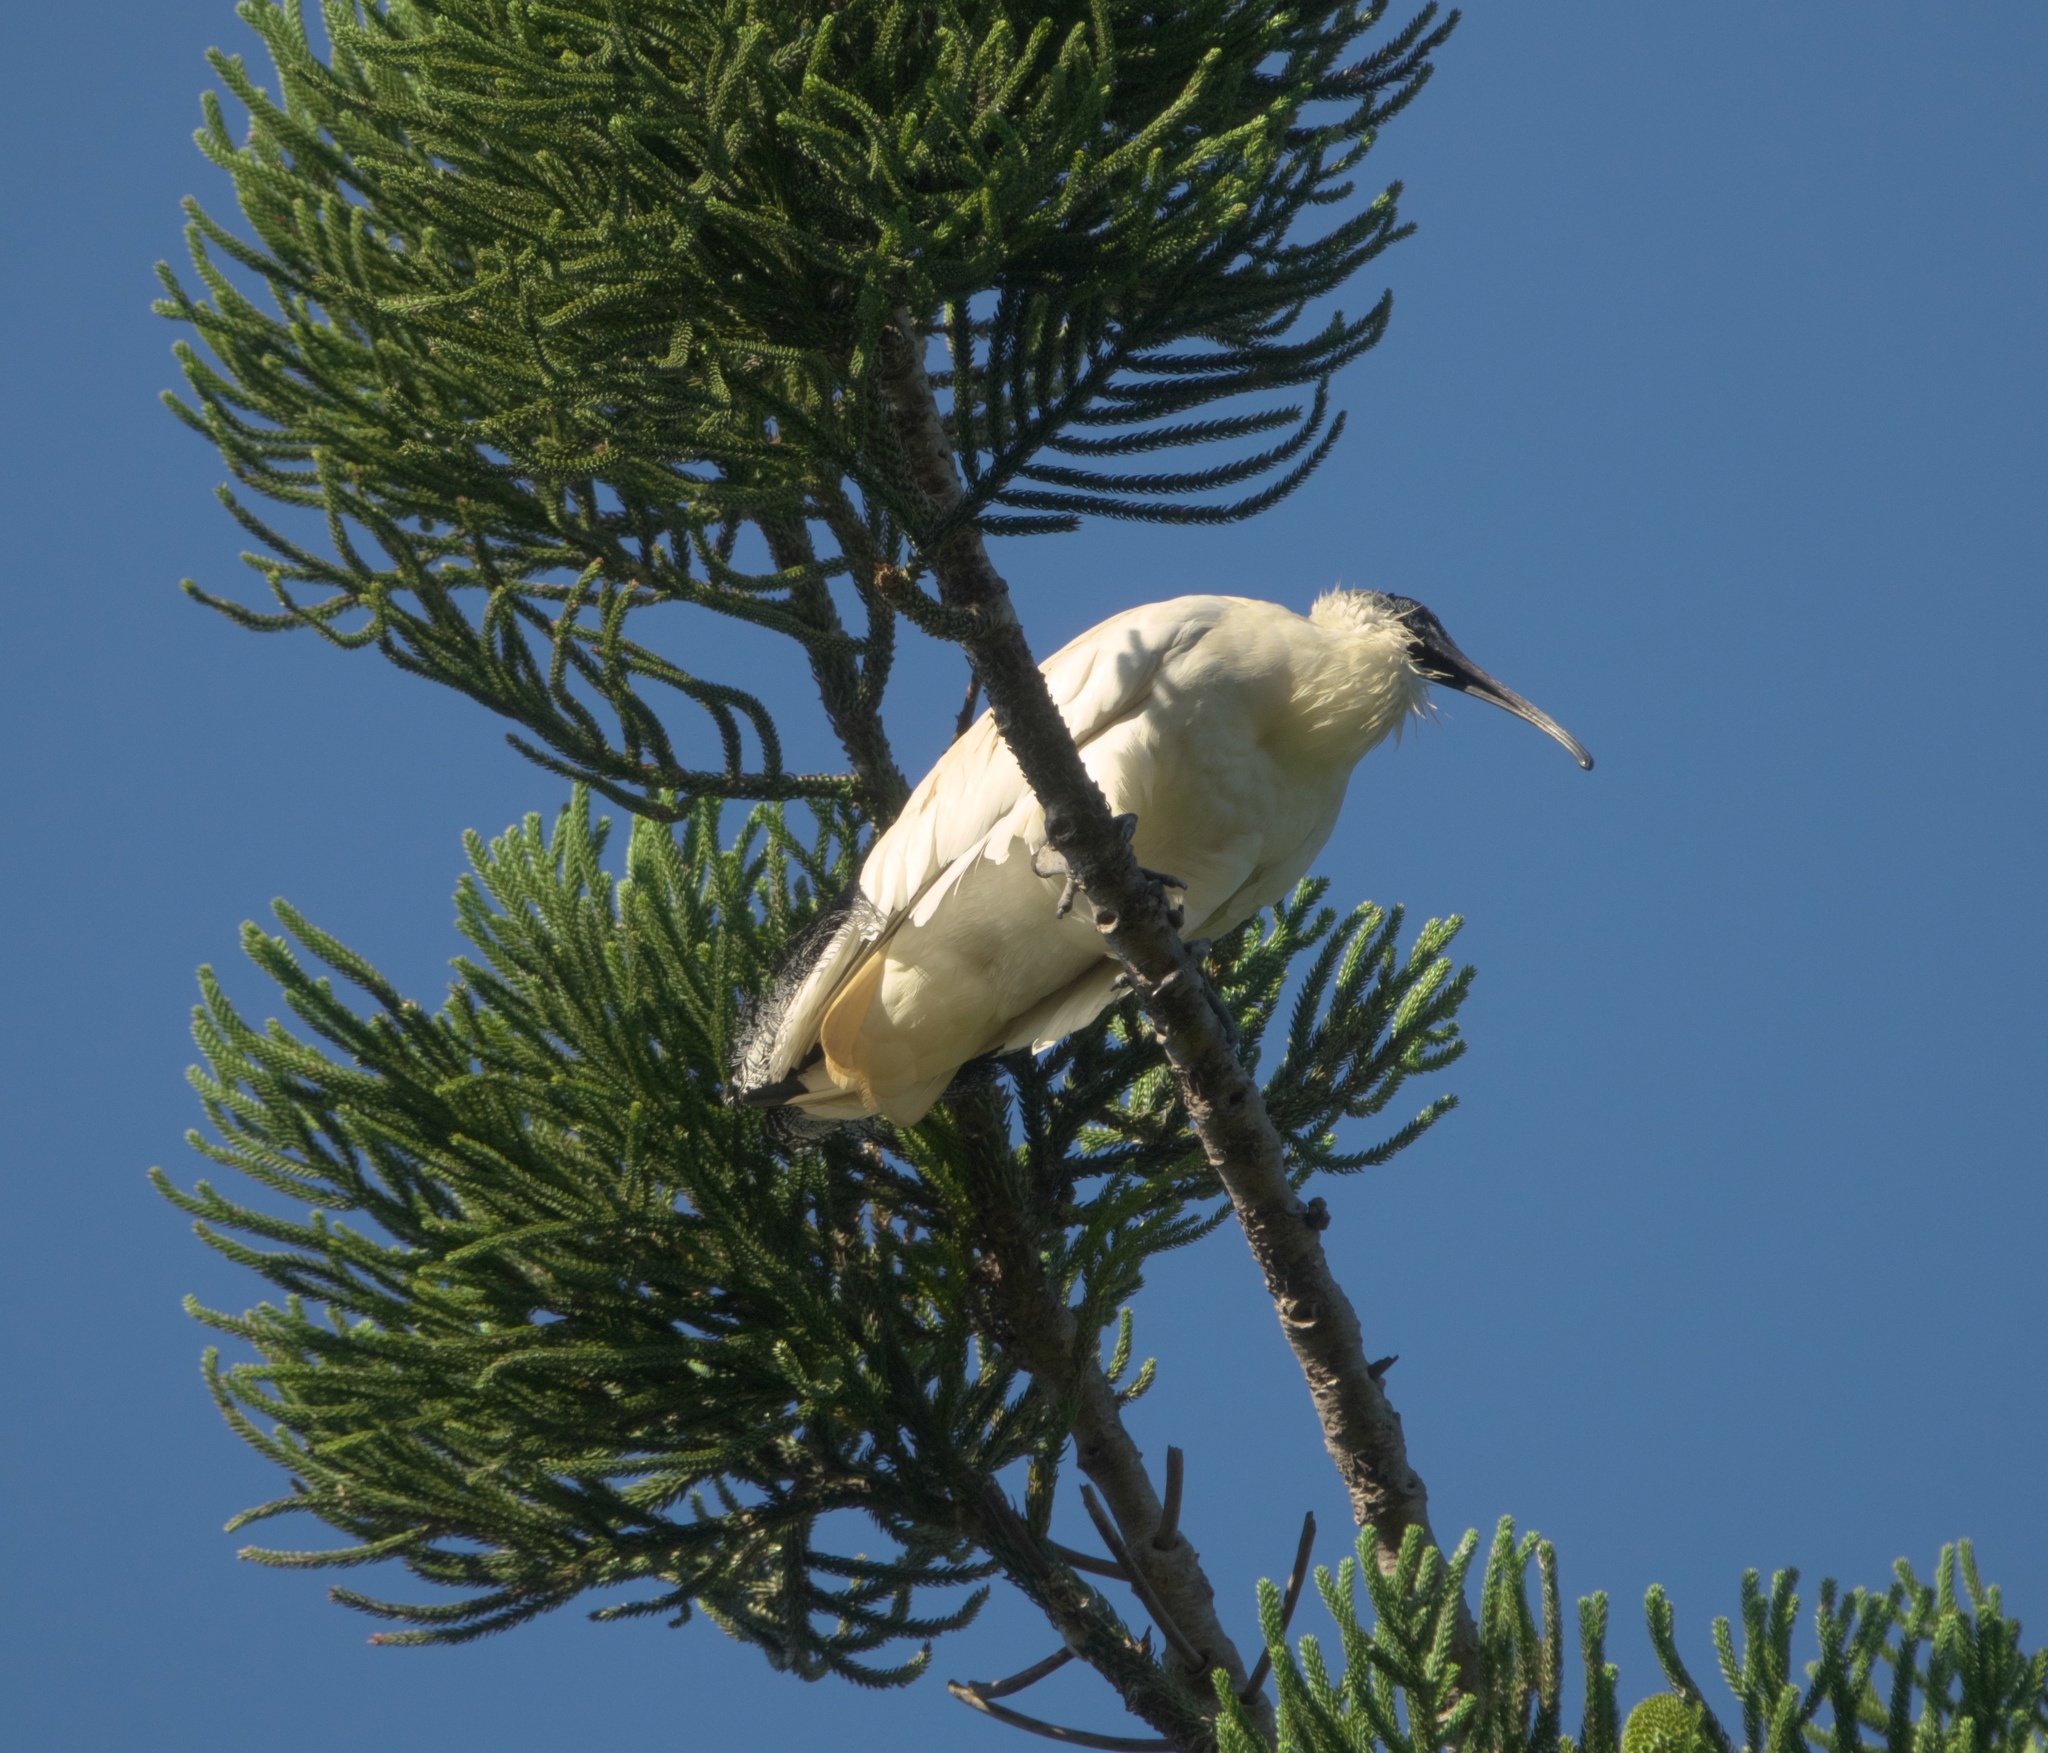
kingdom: Animalia
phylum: Chordata
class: Aves
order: Pelecaniformes
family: Threskiornithidae
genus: Threskiornis
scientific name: Threskiornis molucca
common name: Australian white ibis
